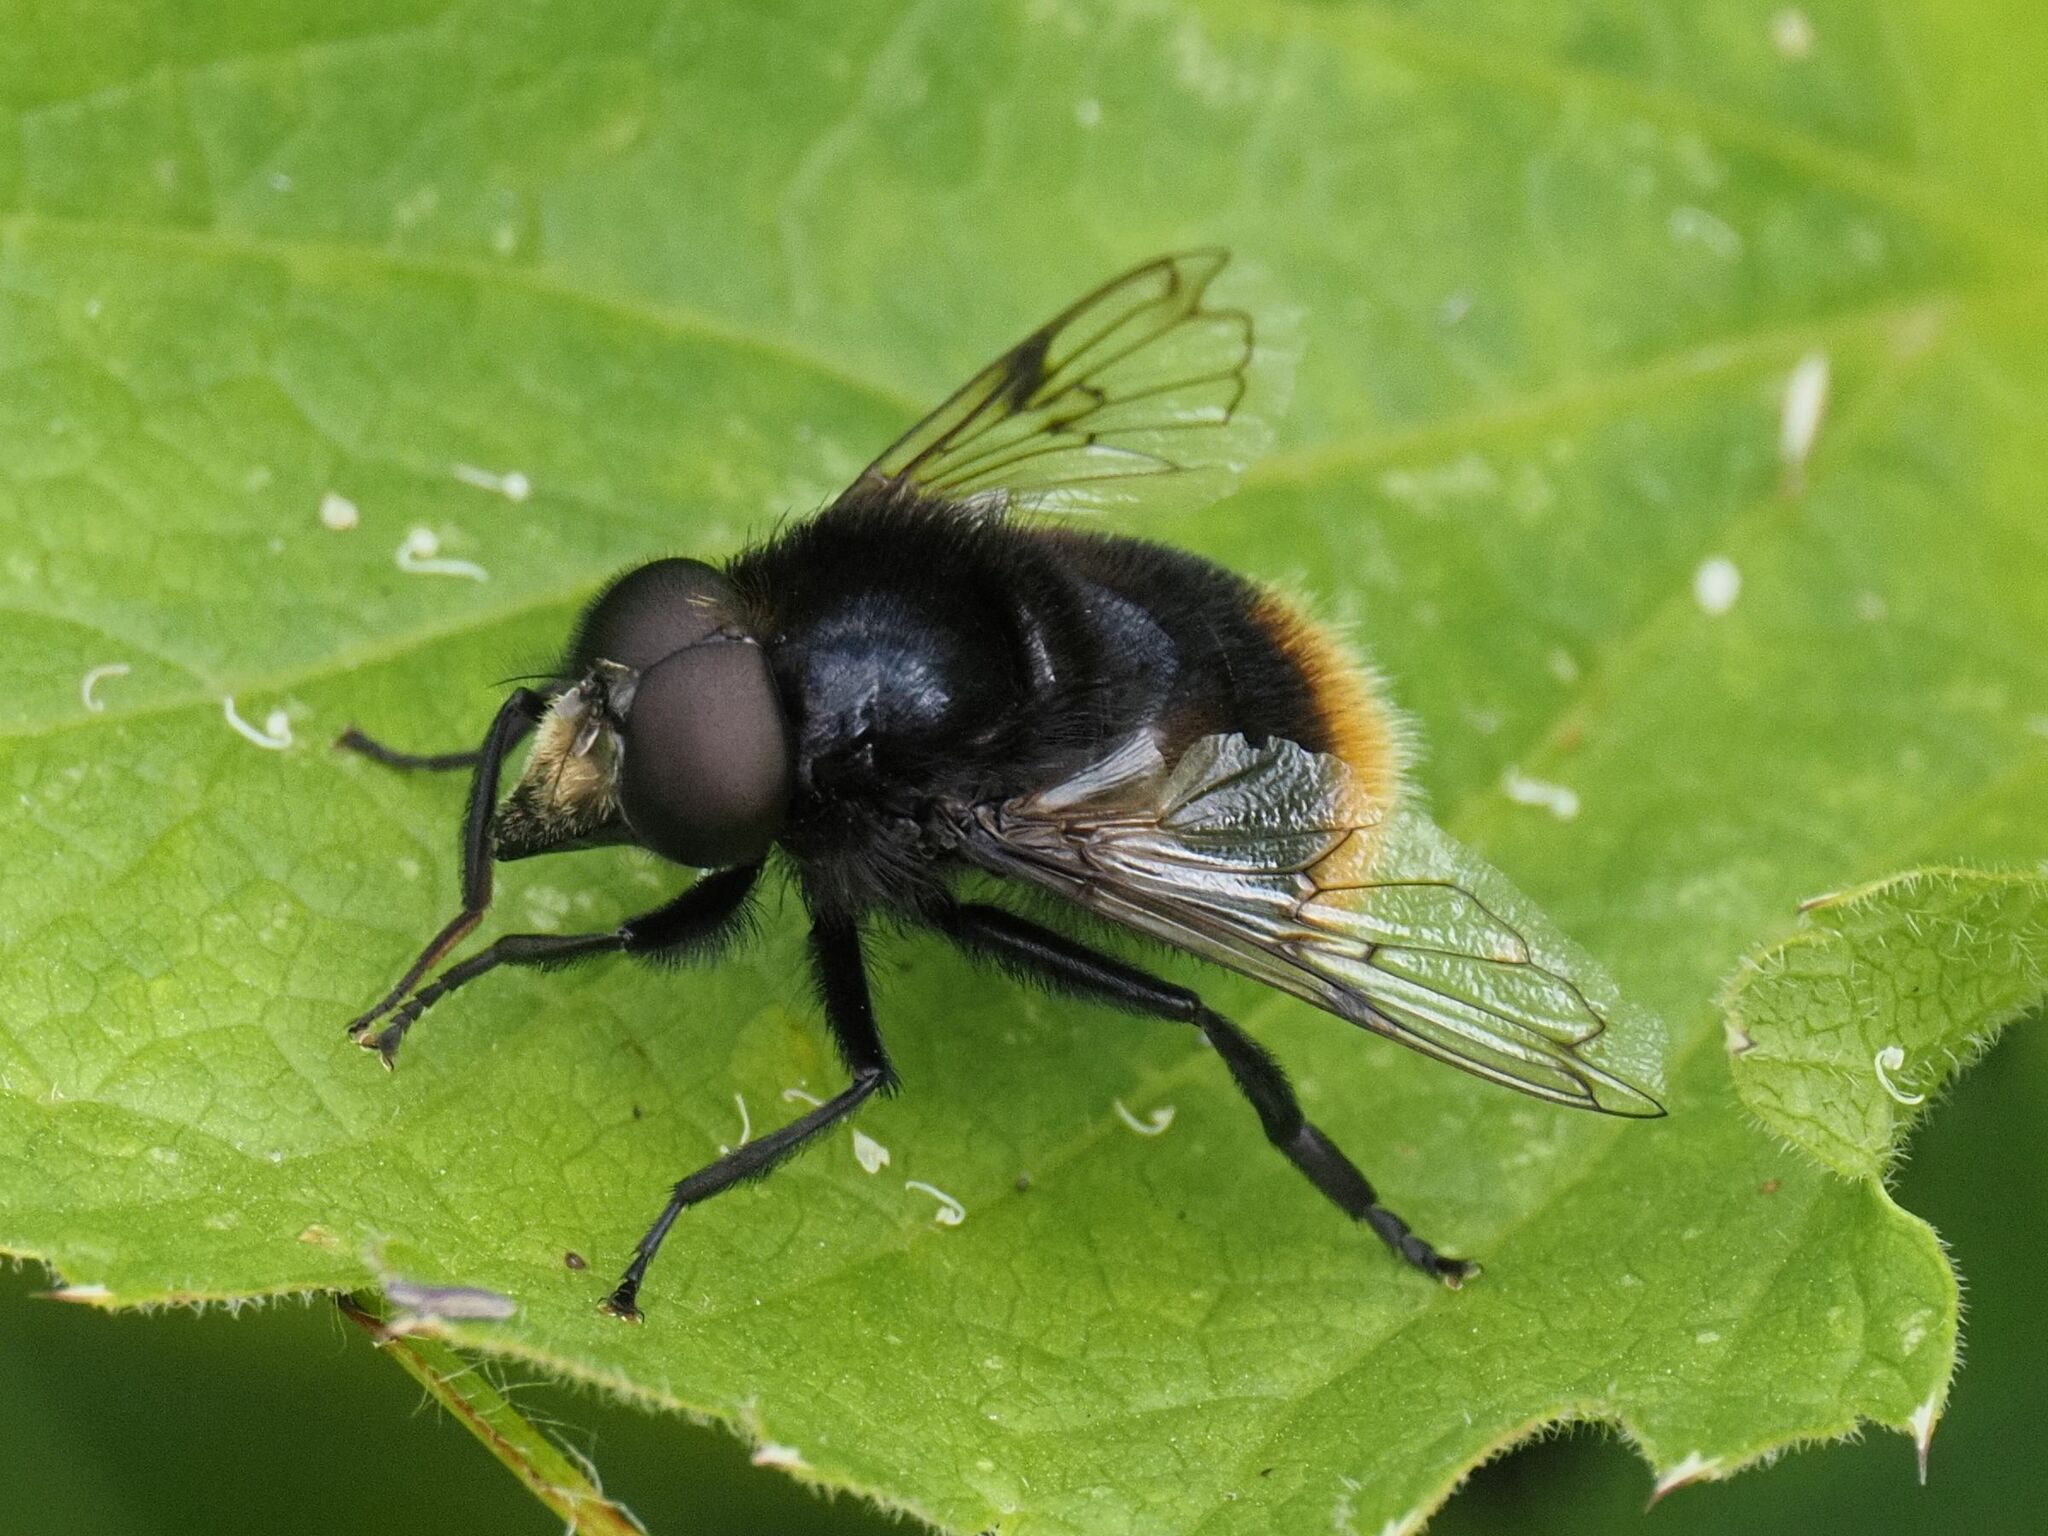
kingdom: Animalia
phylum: Arthropoda
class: Insecta
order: Diptera
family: Syrphidae
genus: Volucella
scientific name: Volucella bombylans
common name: Bumble bee hover fly
